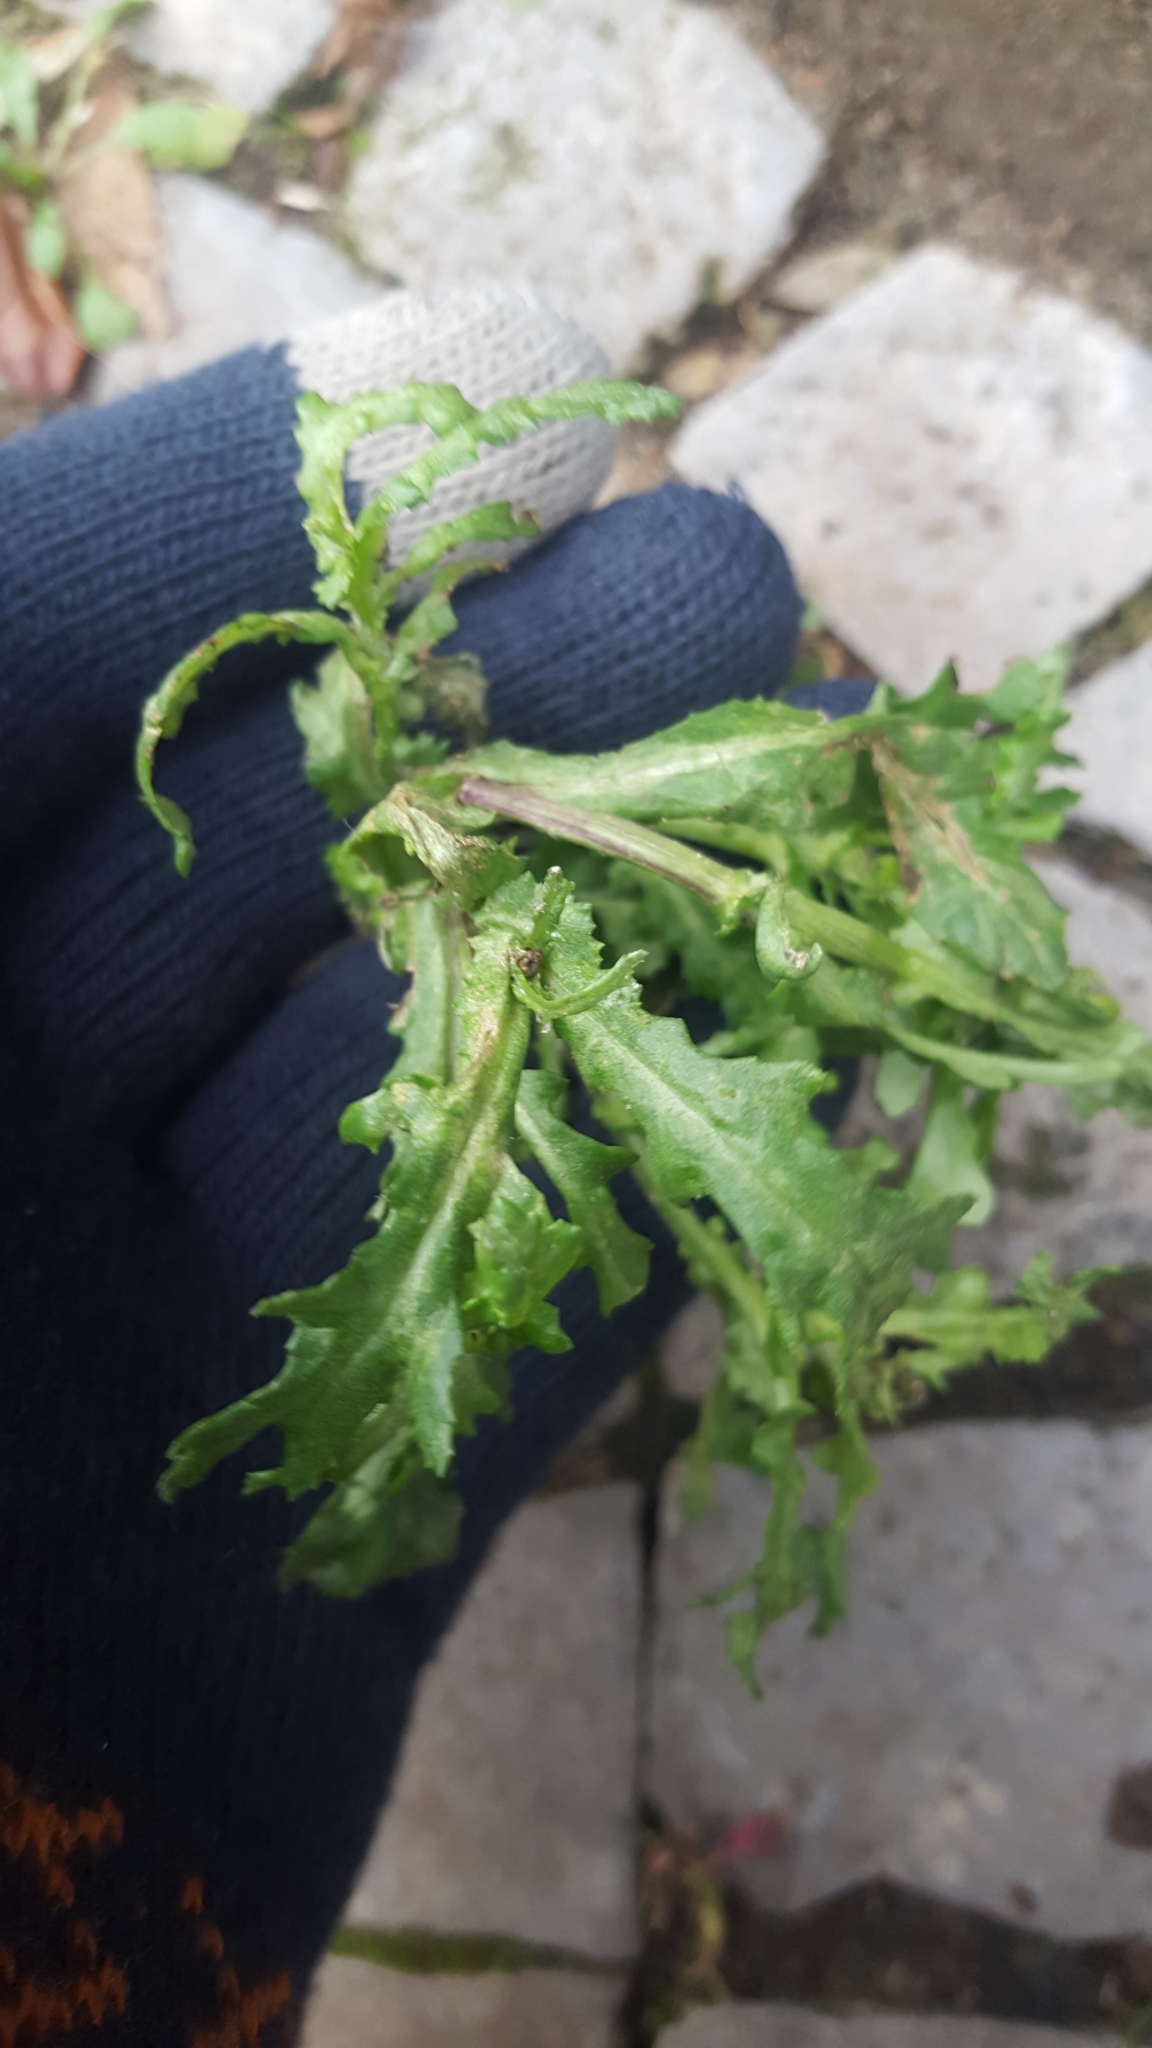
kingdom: Plantae
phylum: Tracheophyta
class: Magnoliopsida
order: Asterales
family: Asteraceae
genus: Senecio
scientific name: Senecio vulgaris
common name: Old-man-in-the-spring
